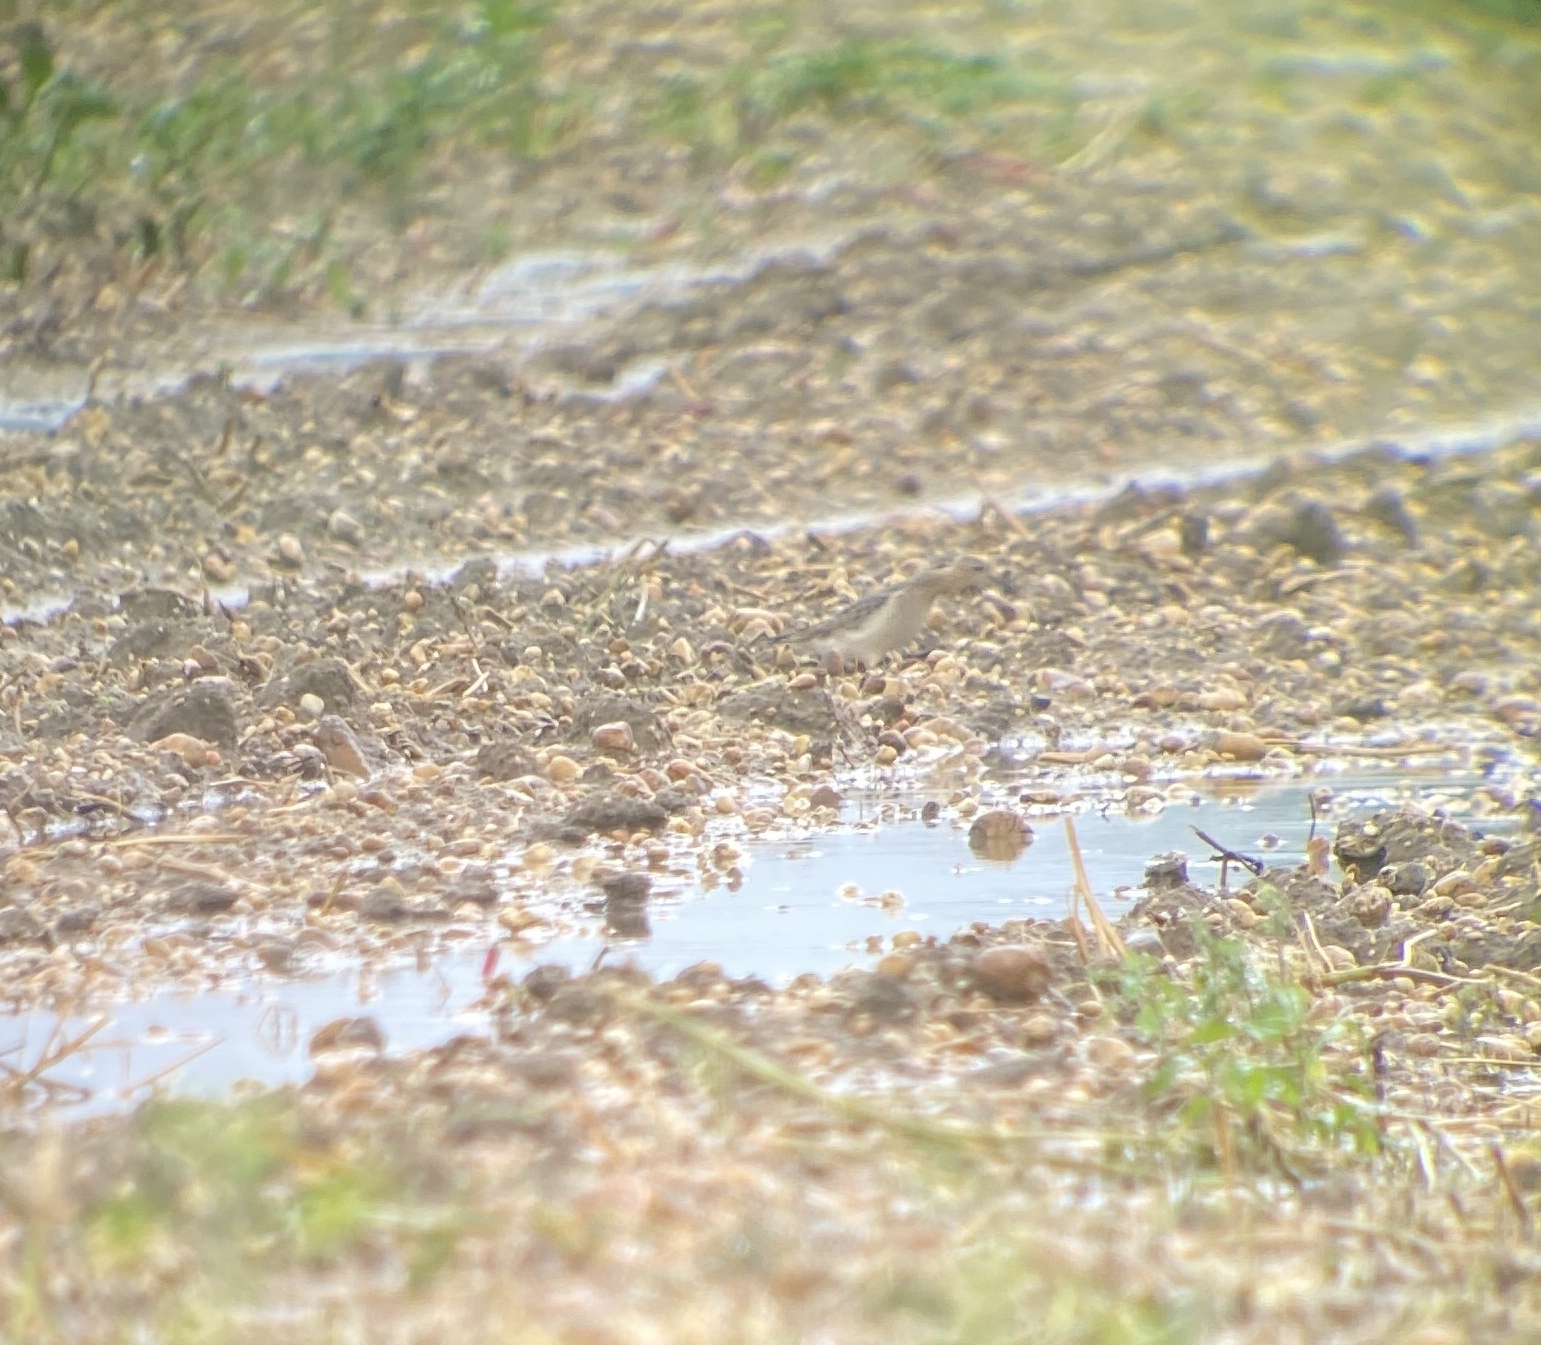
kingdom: Animalia
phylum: Chordata
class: Aves
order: Charadriiformes
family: Scolopacidae
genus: Calidris
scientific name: Calidris subruficollis
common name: Buff-breasted sandpiper
